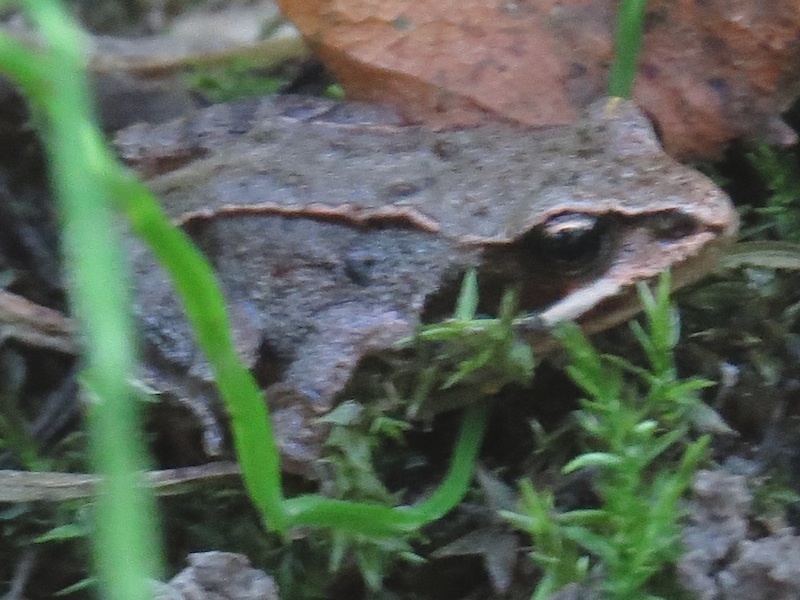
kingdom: Animalia
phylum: Chordata
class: Amphibia
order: Anura
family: Ranidae
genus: Rana
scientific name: Rana temporaria
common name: Common frog
